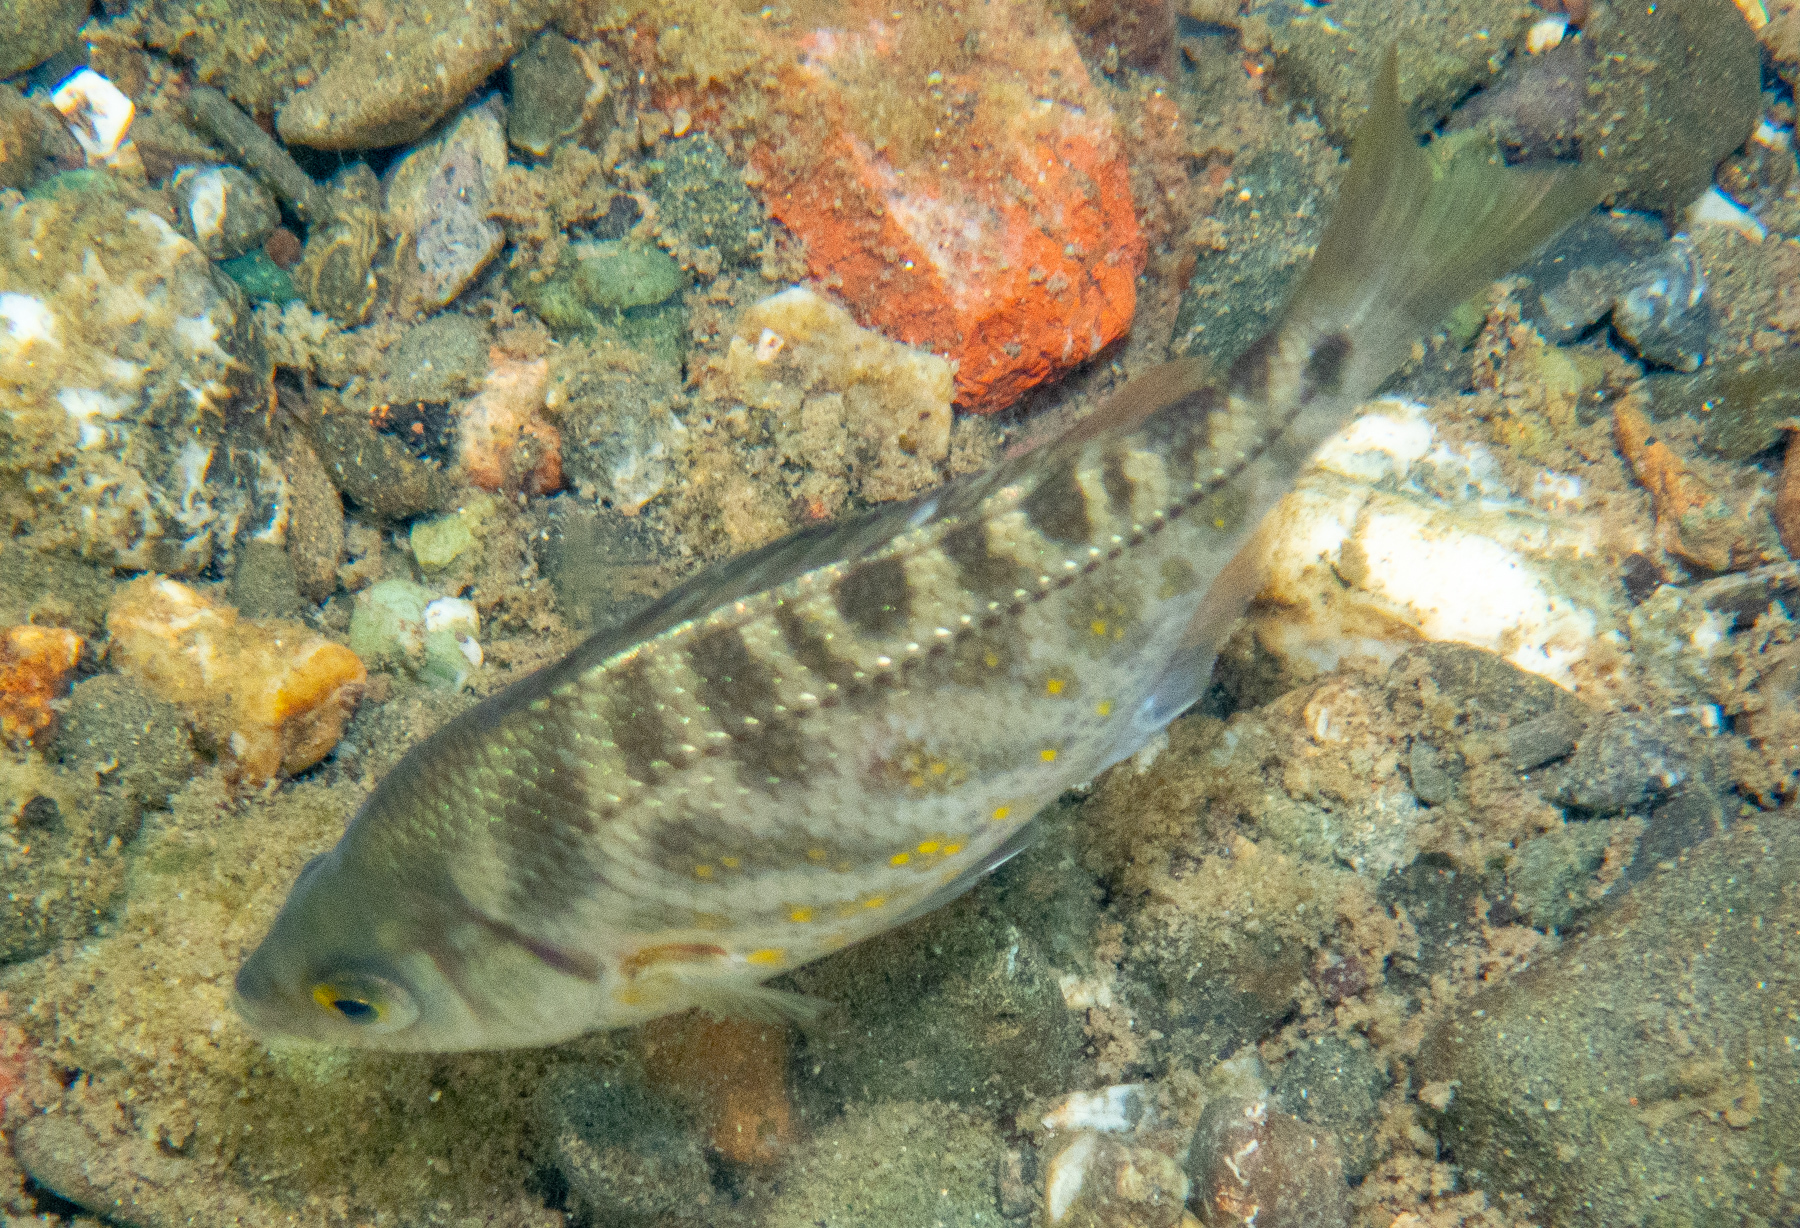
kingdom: Animalia
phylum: Chordata
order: Perciformes
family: Embiotocidae
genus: Hysterocarpus
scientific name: Hysterocarpus traskii
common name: Russian river tule perch
